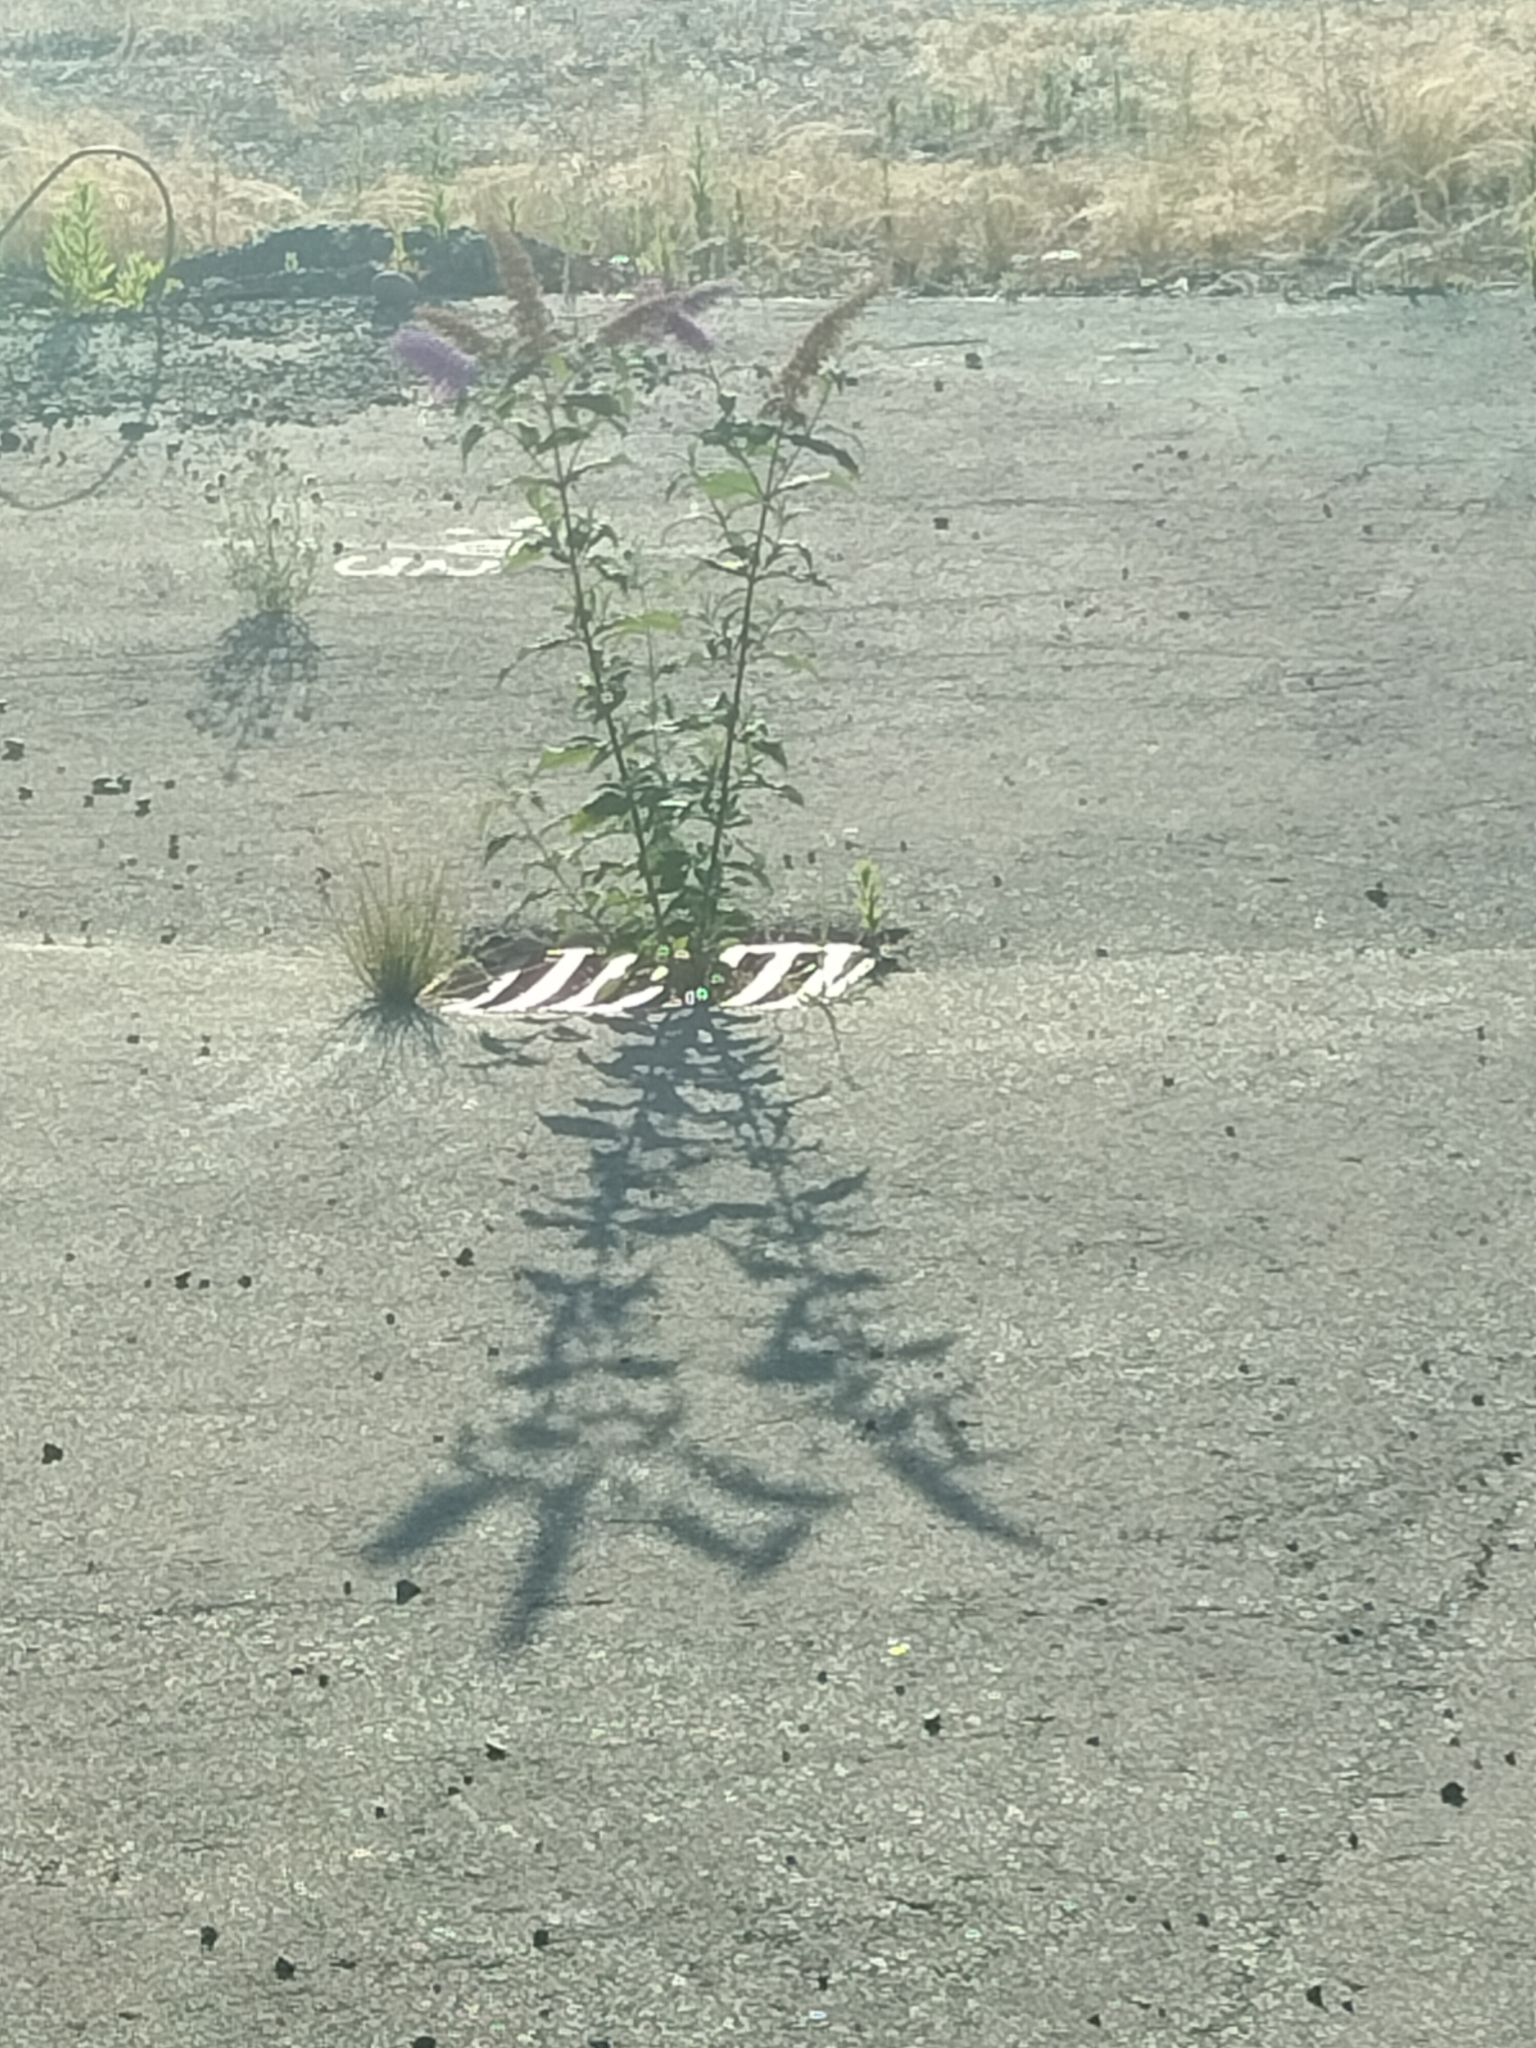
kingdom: Plantae
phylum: Tracheophyta
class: Magnoliopsida
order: Lamiales
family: Scrophulariaceae
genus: Buddleja
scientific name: Buddleja davidii
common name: Butterfly-bush
